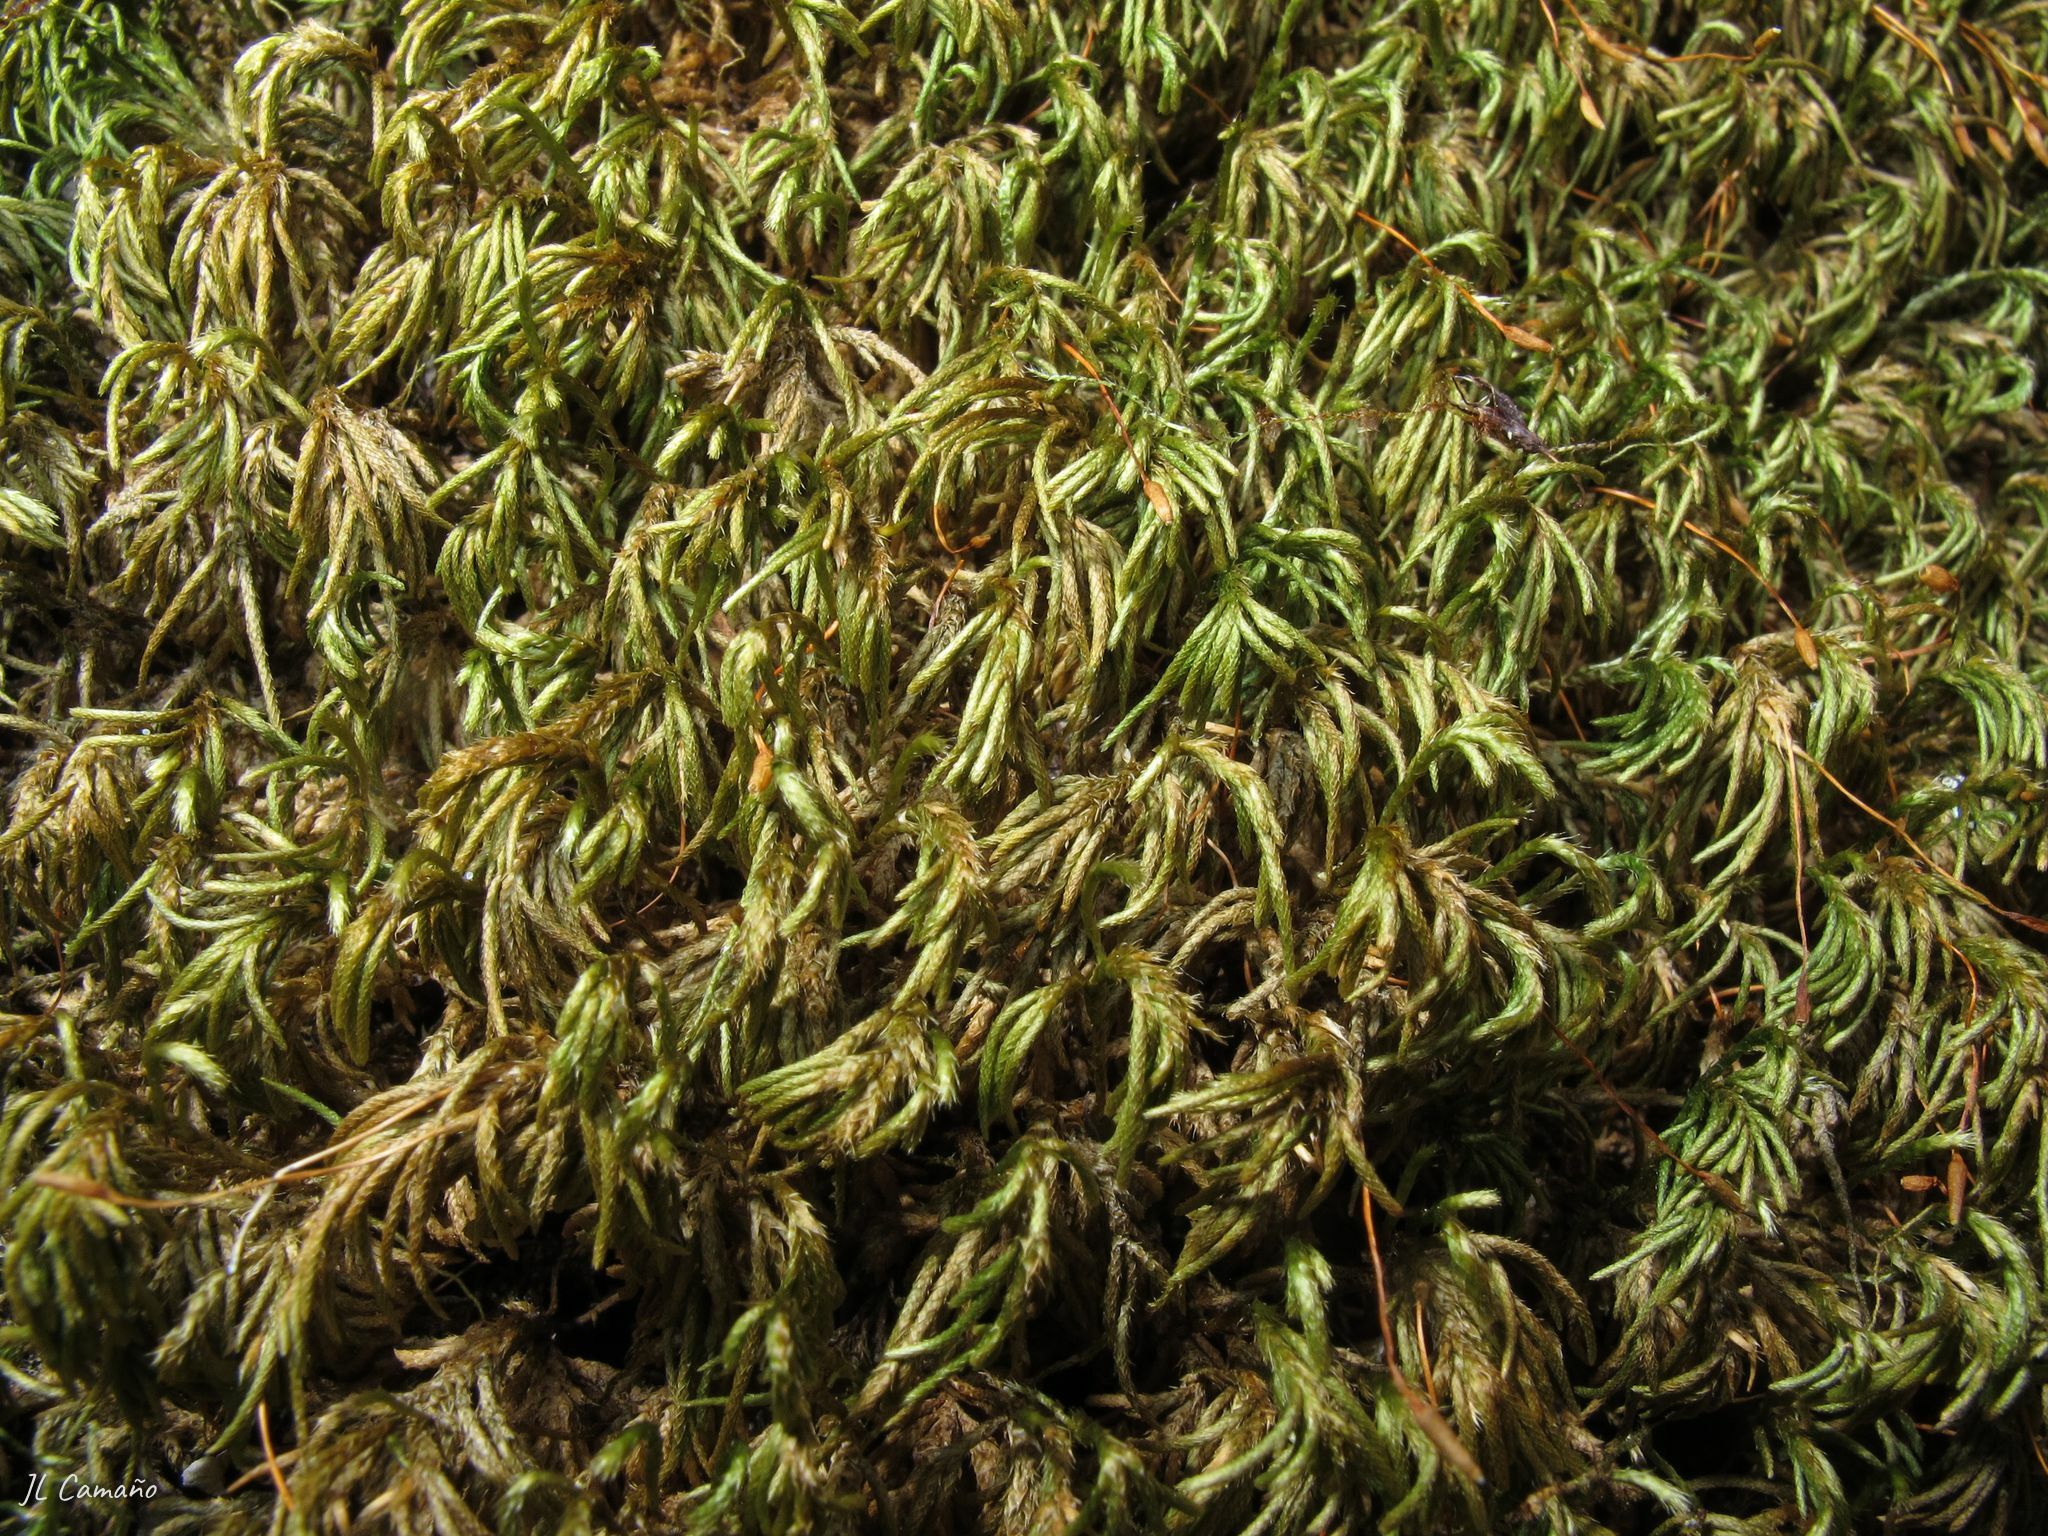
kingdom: Plantae
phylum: Bryophyta
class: Bryopsida
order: Hypnales
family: Lembophyllaceae
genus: Nogopterium
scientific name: Nogopterium gracile
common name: Bird's-foot wing-moss
